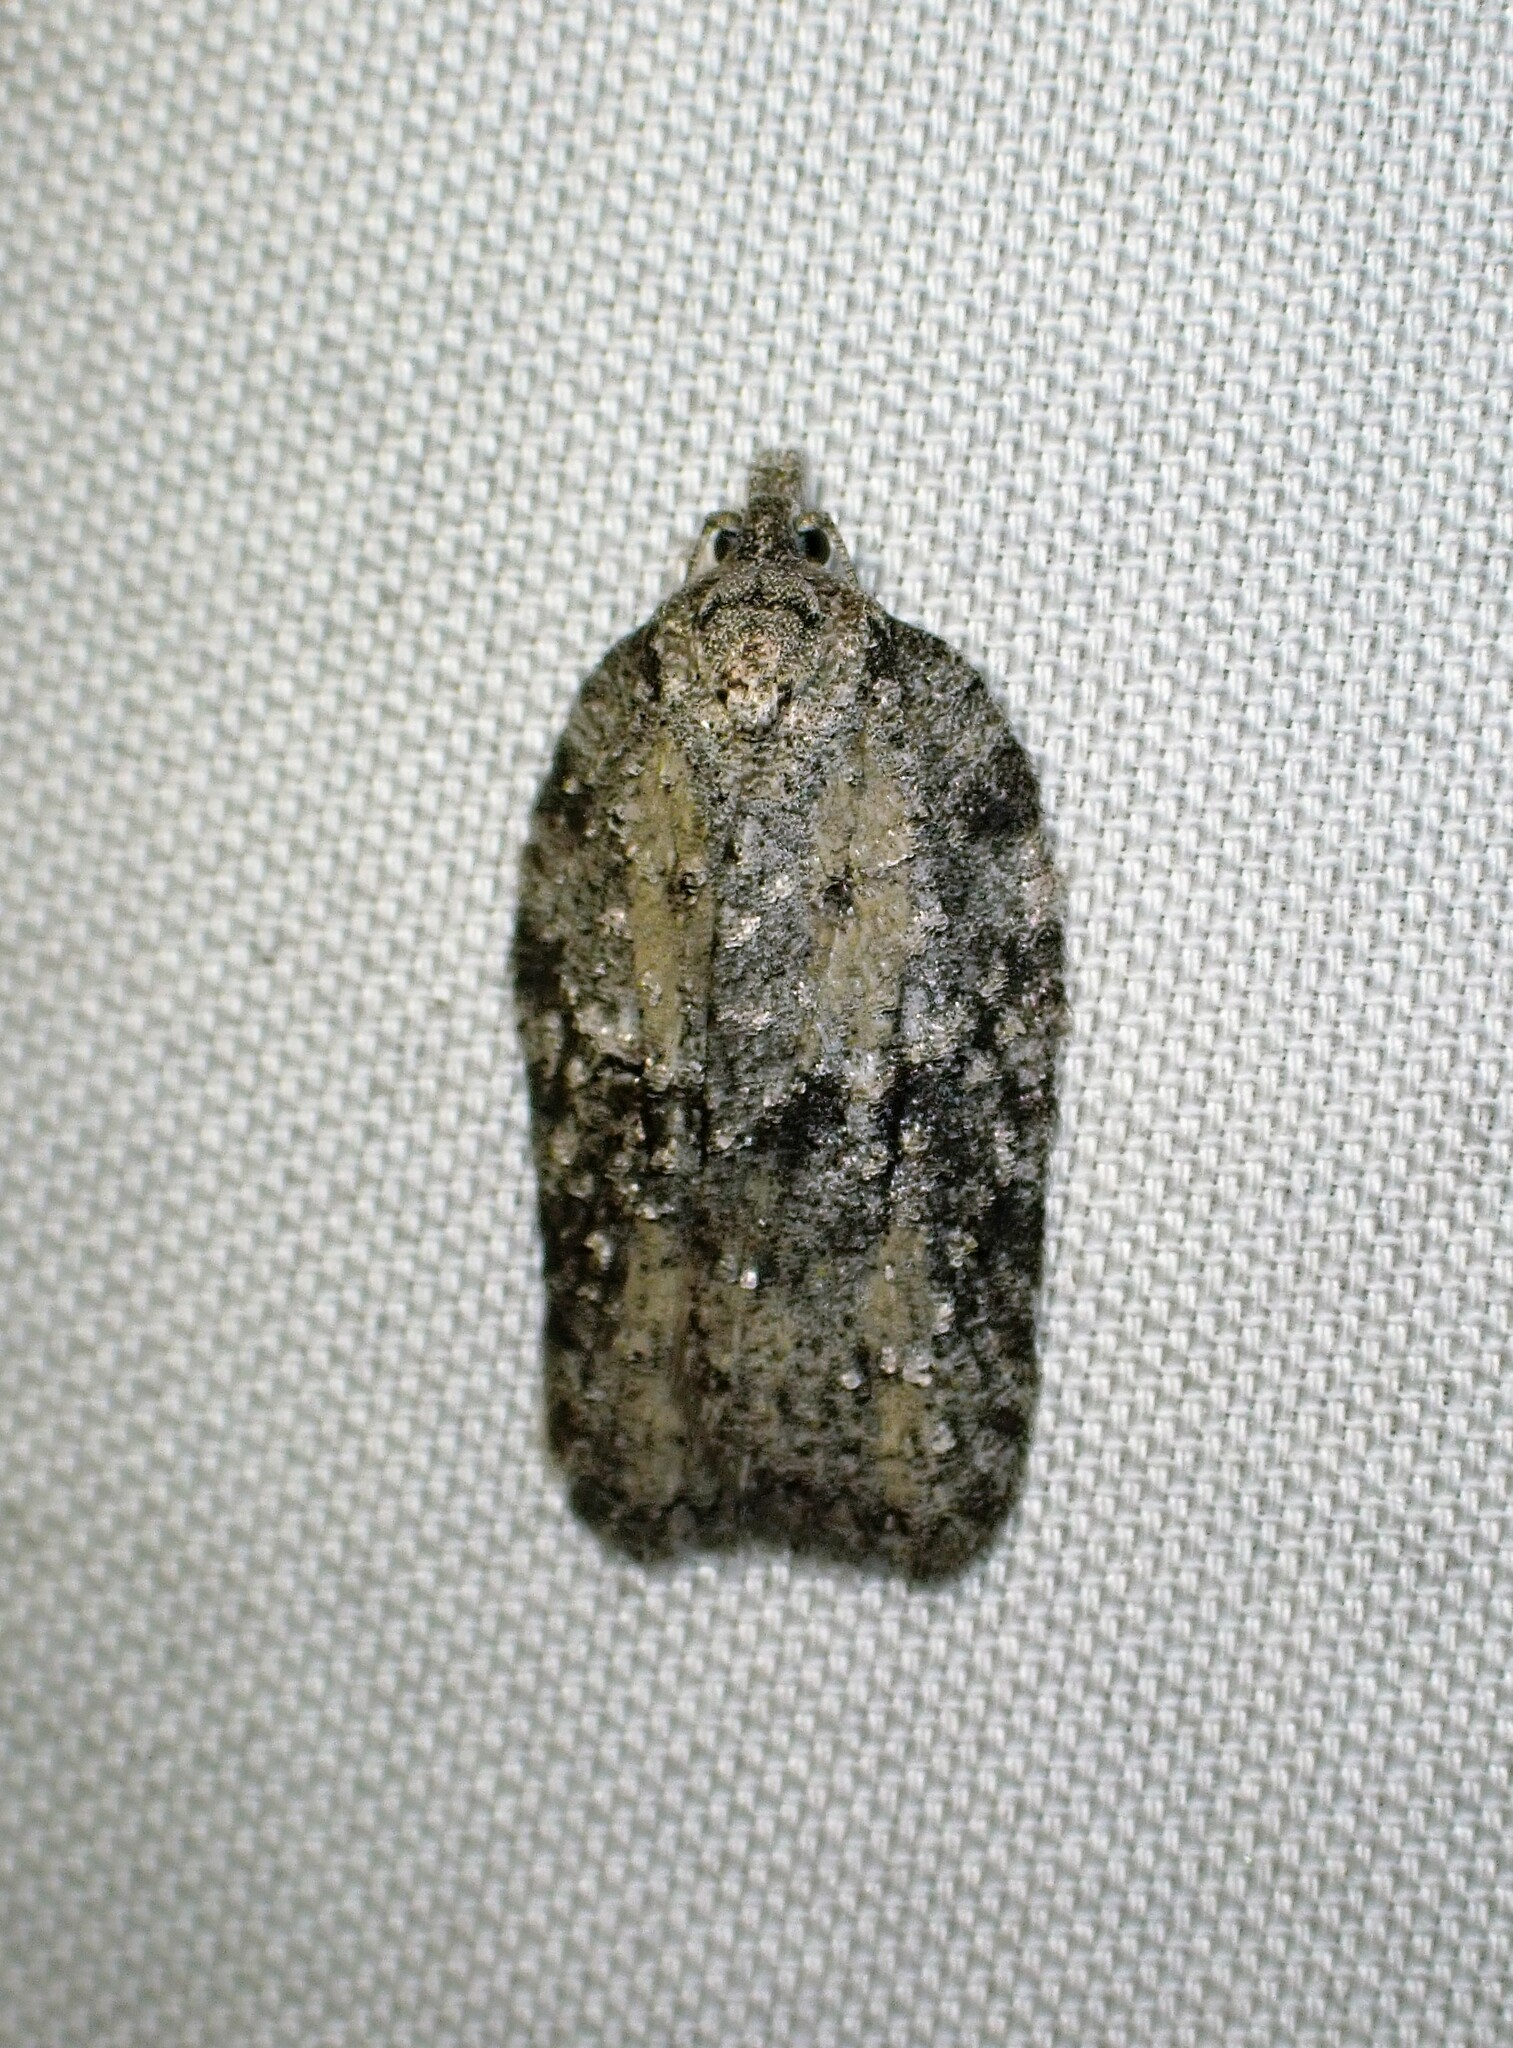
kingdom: Animalia
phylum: Arthropoda
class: Insecta
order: Lepidoptera
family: Tortricidae
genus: Acleris
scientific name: Acleris nigrolinea
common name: Black-lined acleris
